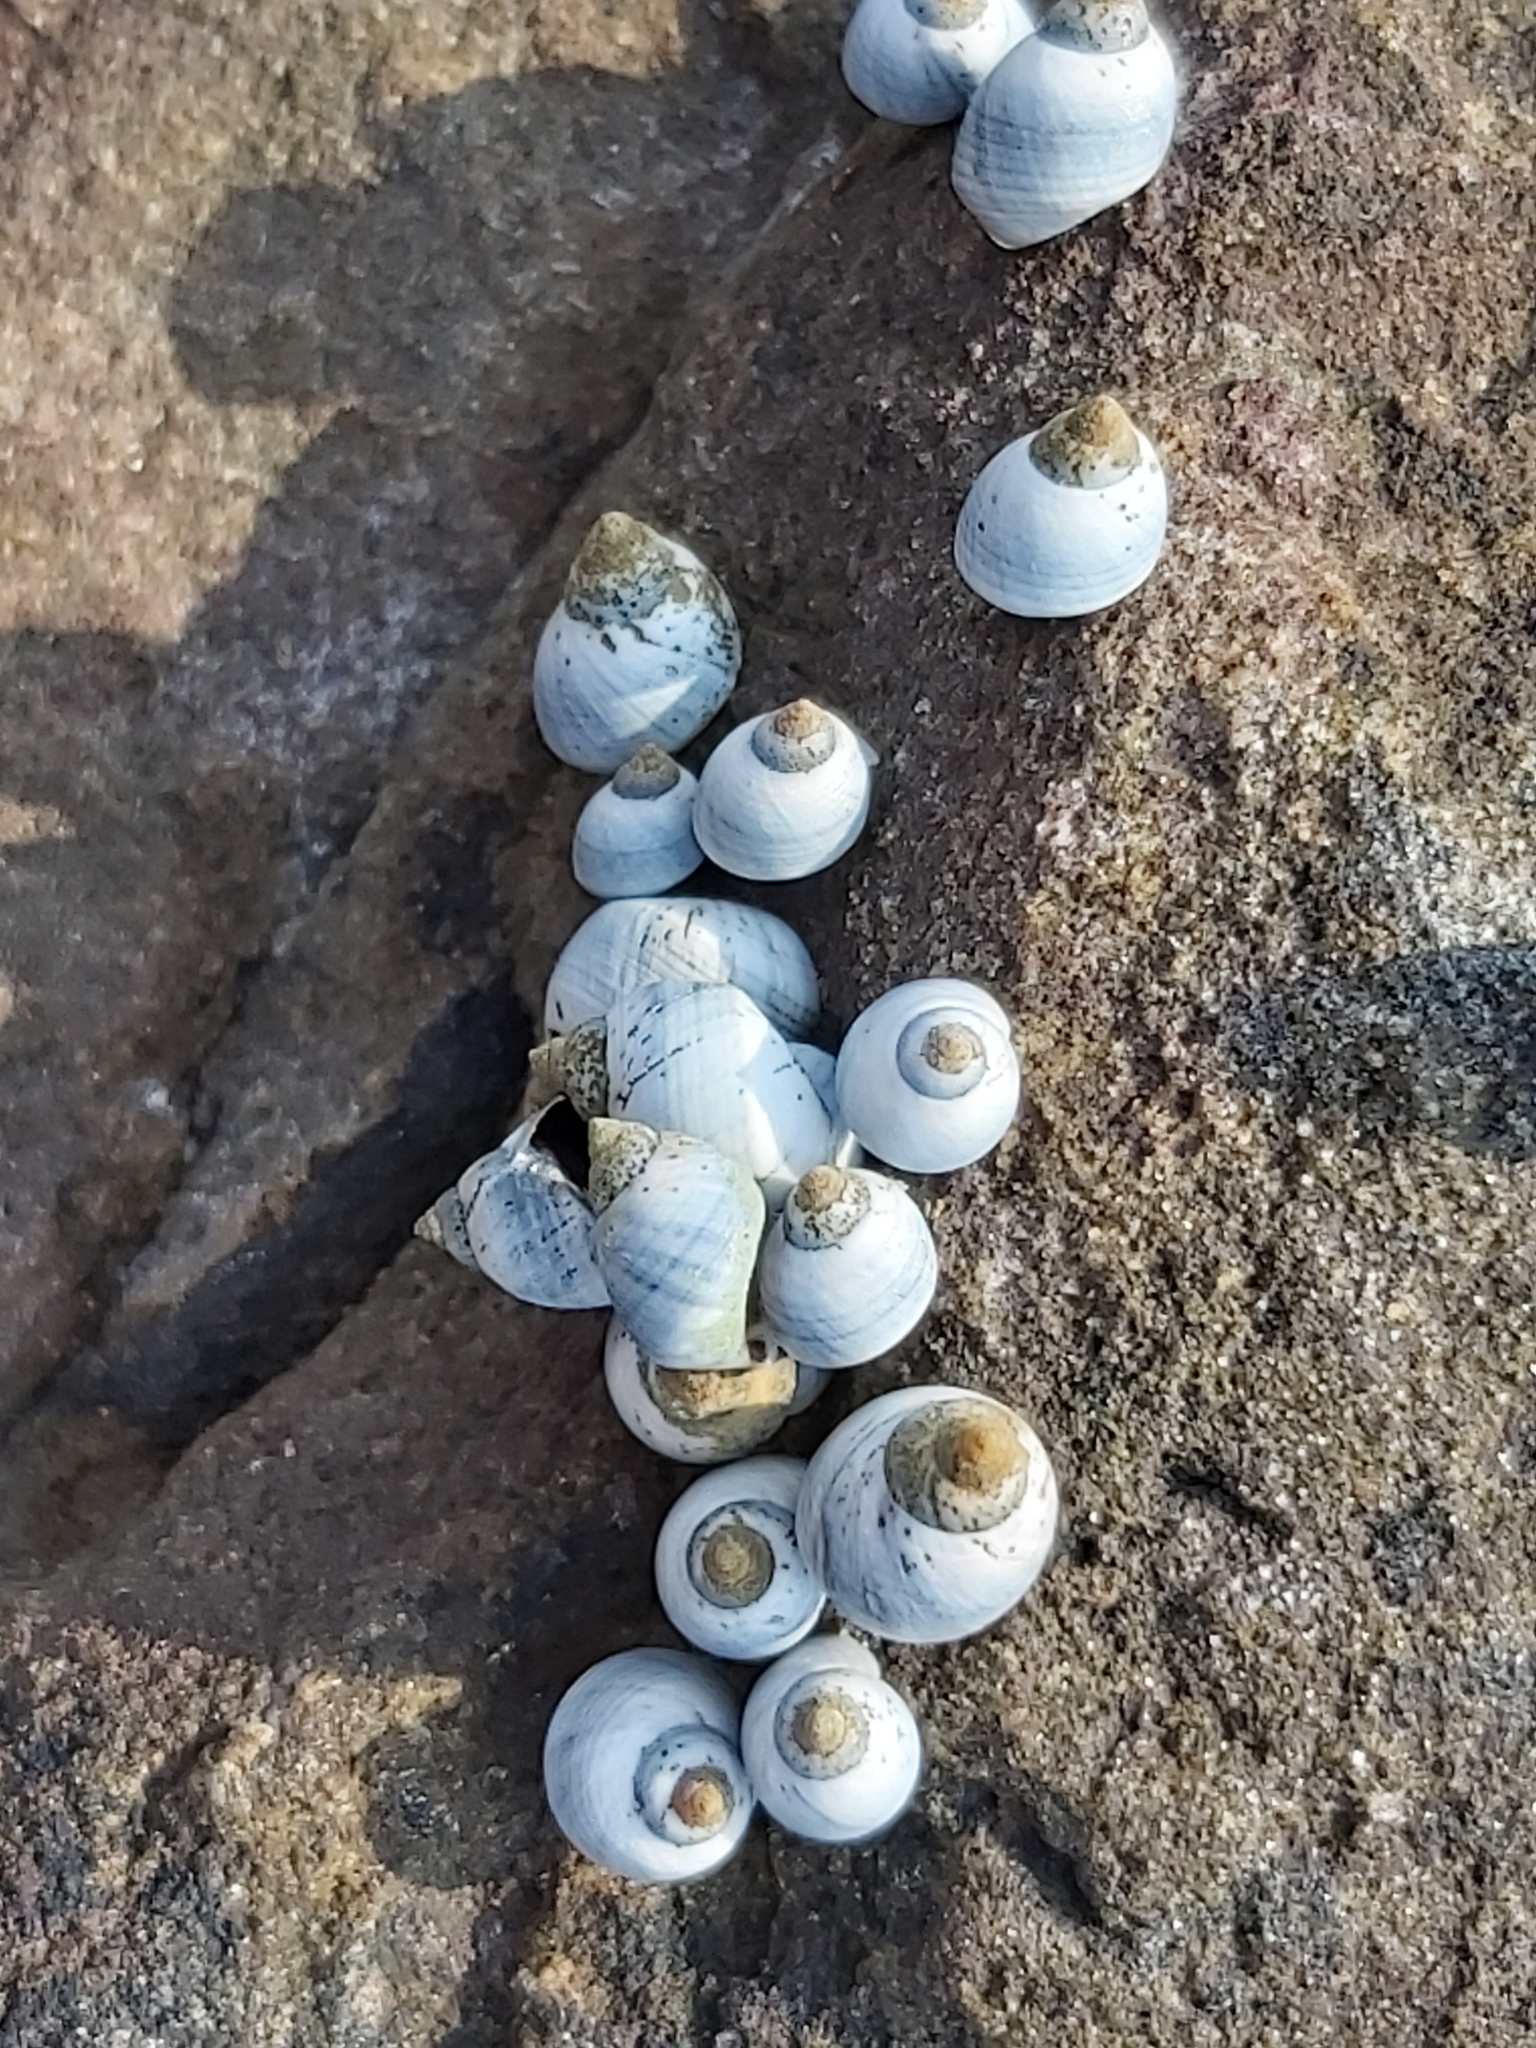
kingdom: Animalia
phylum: Mollusca
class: Gastropoda
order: Littorinimorpha
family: Littorinidae
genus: Austrolittorina
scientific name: Austrolittorina unifasciata
